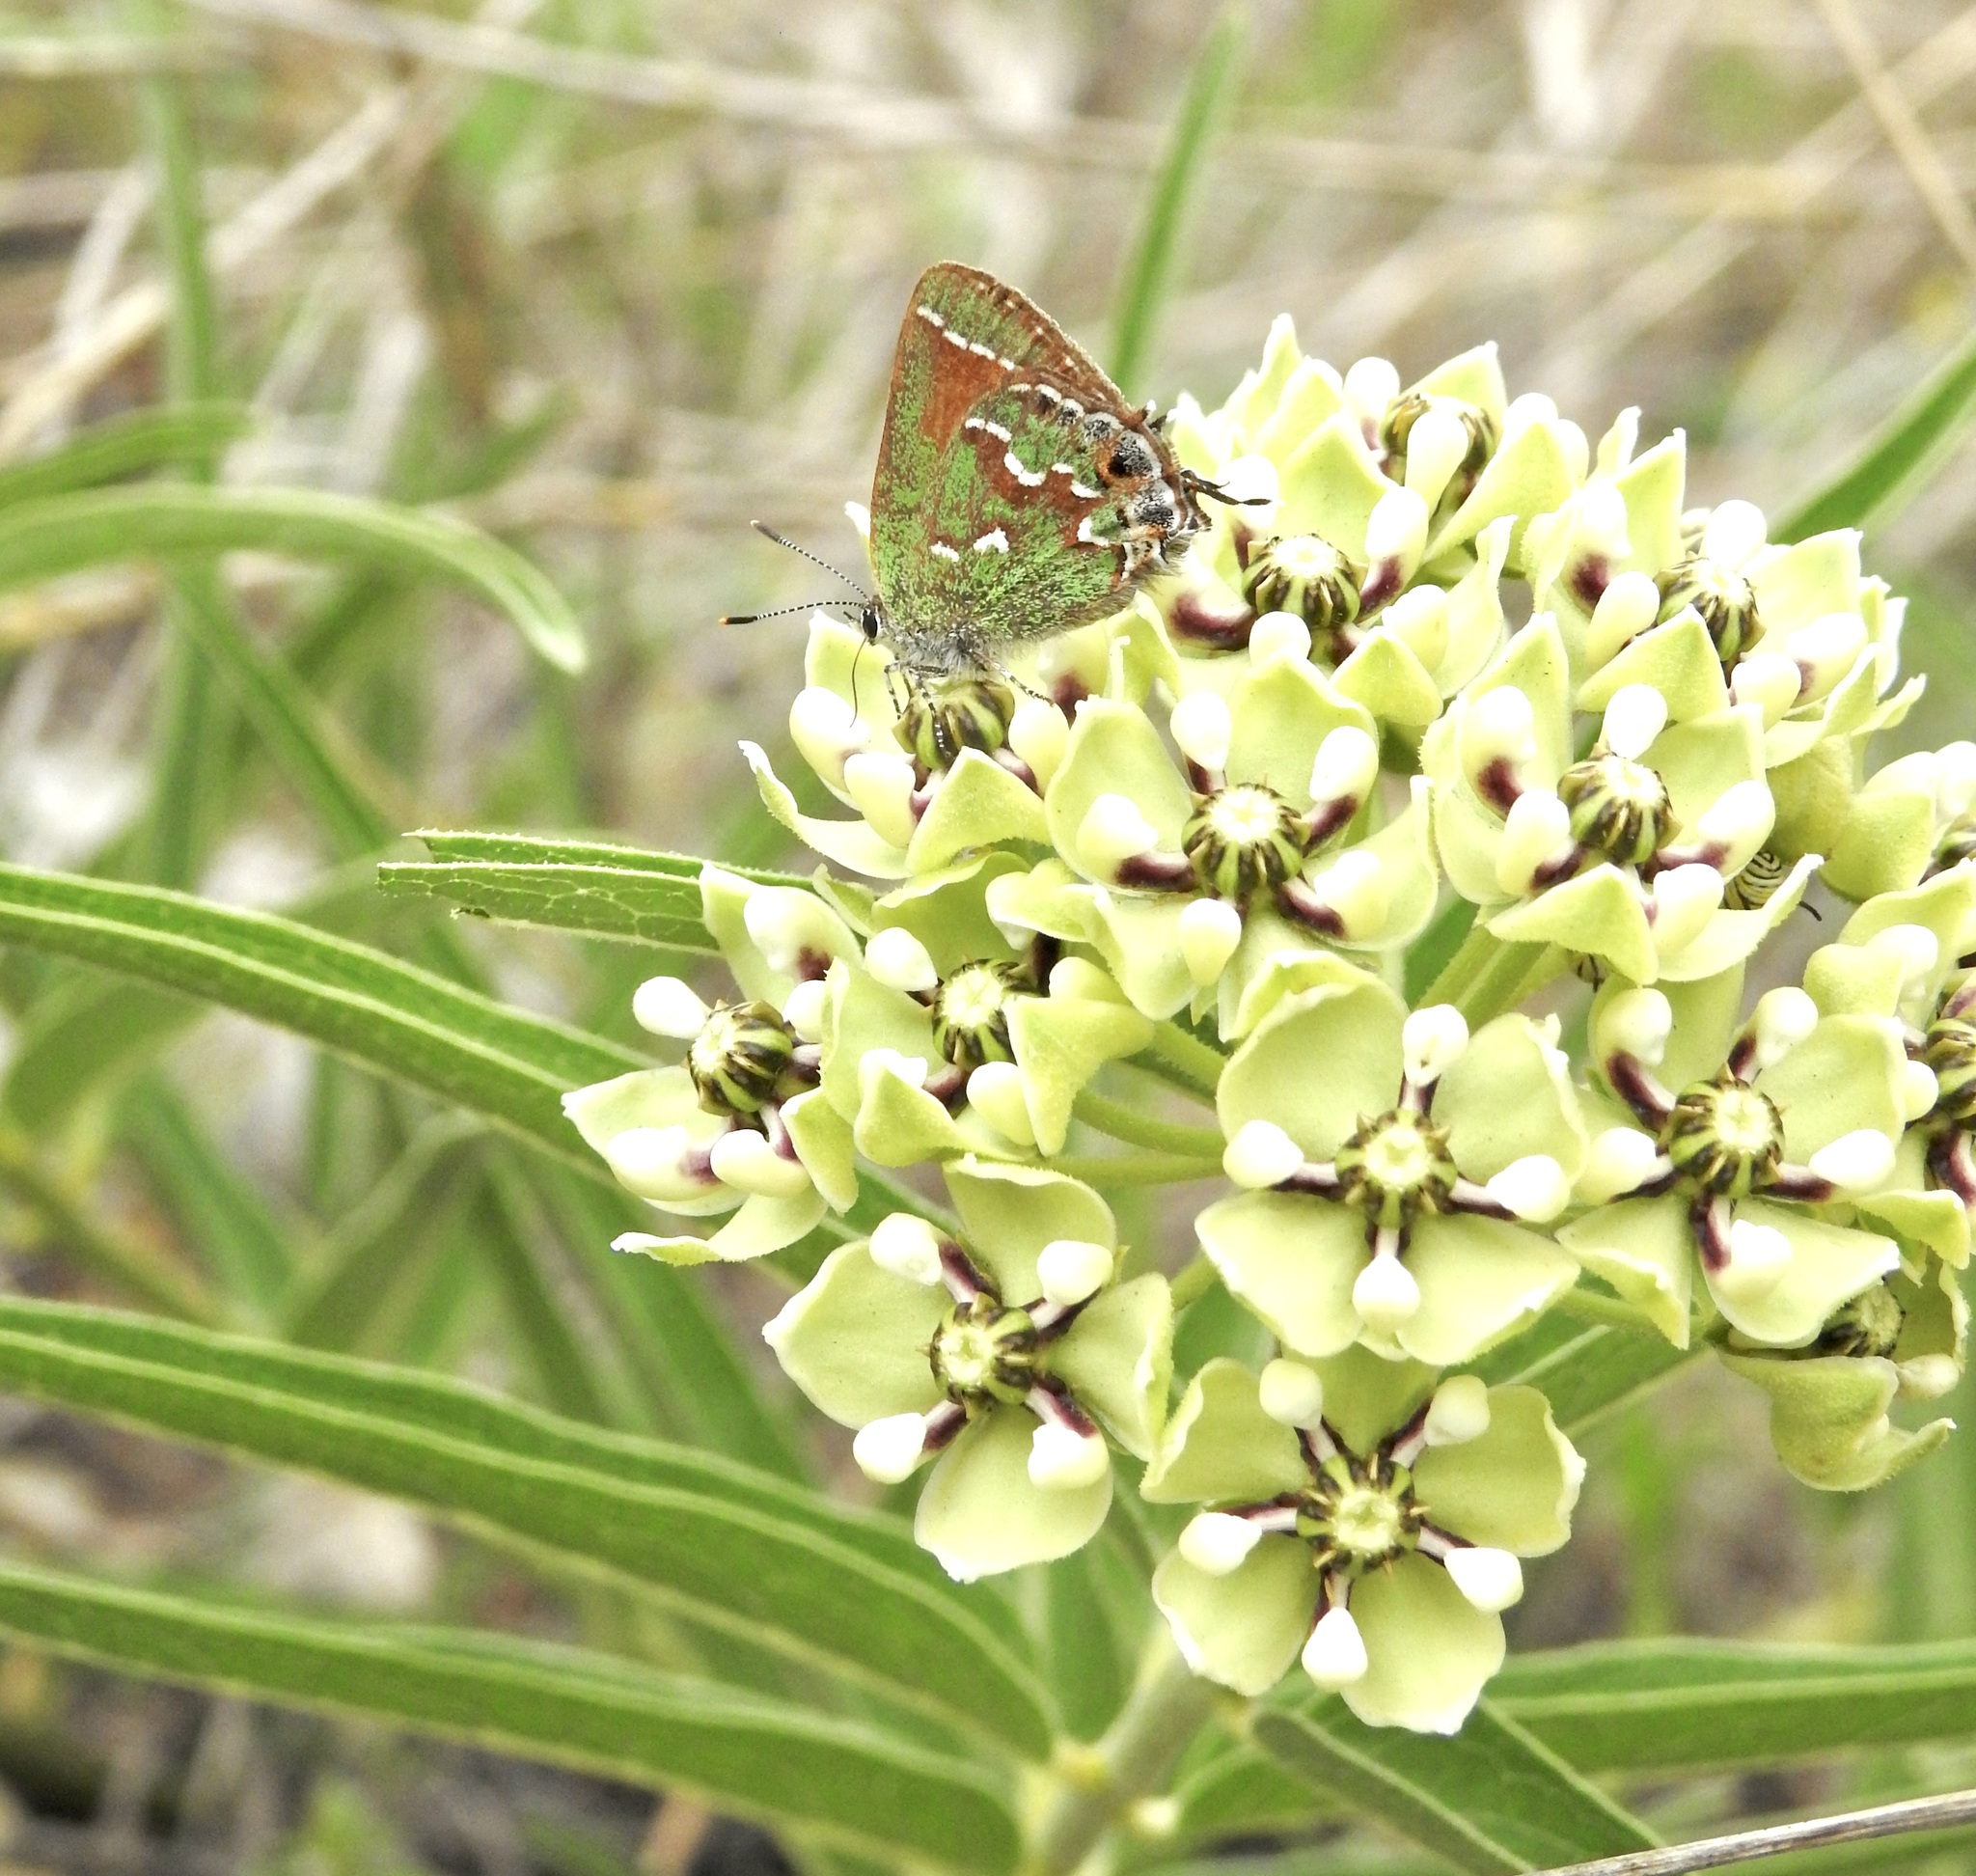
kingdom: Animalia
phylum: Arthropoda
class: Insecta
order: Lepidoptera
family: Lycaenidae
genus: Mitoura
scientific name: Mitoura gryneus
